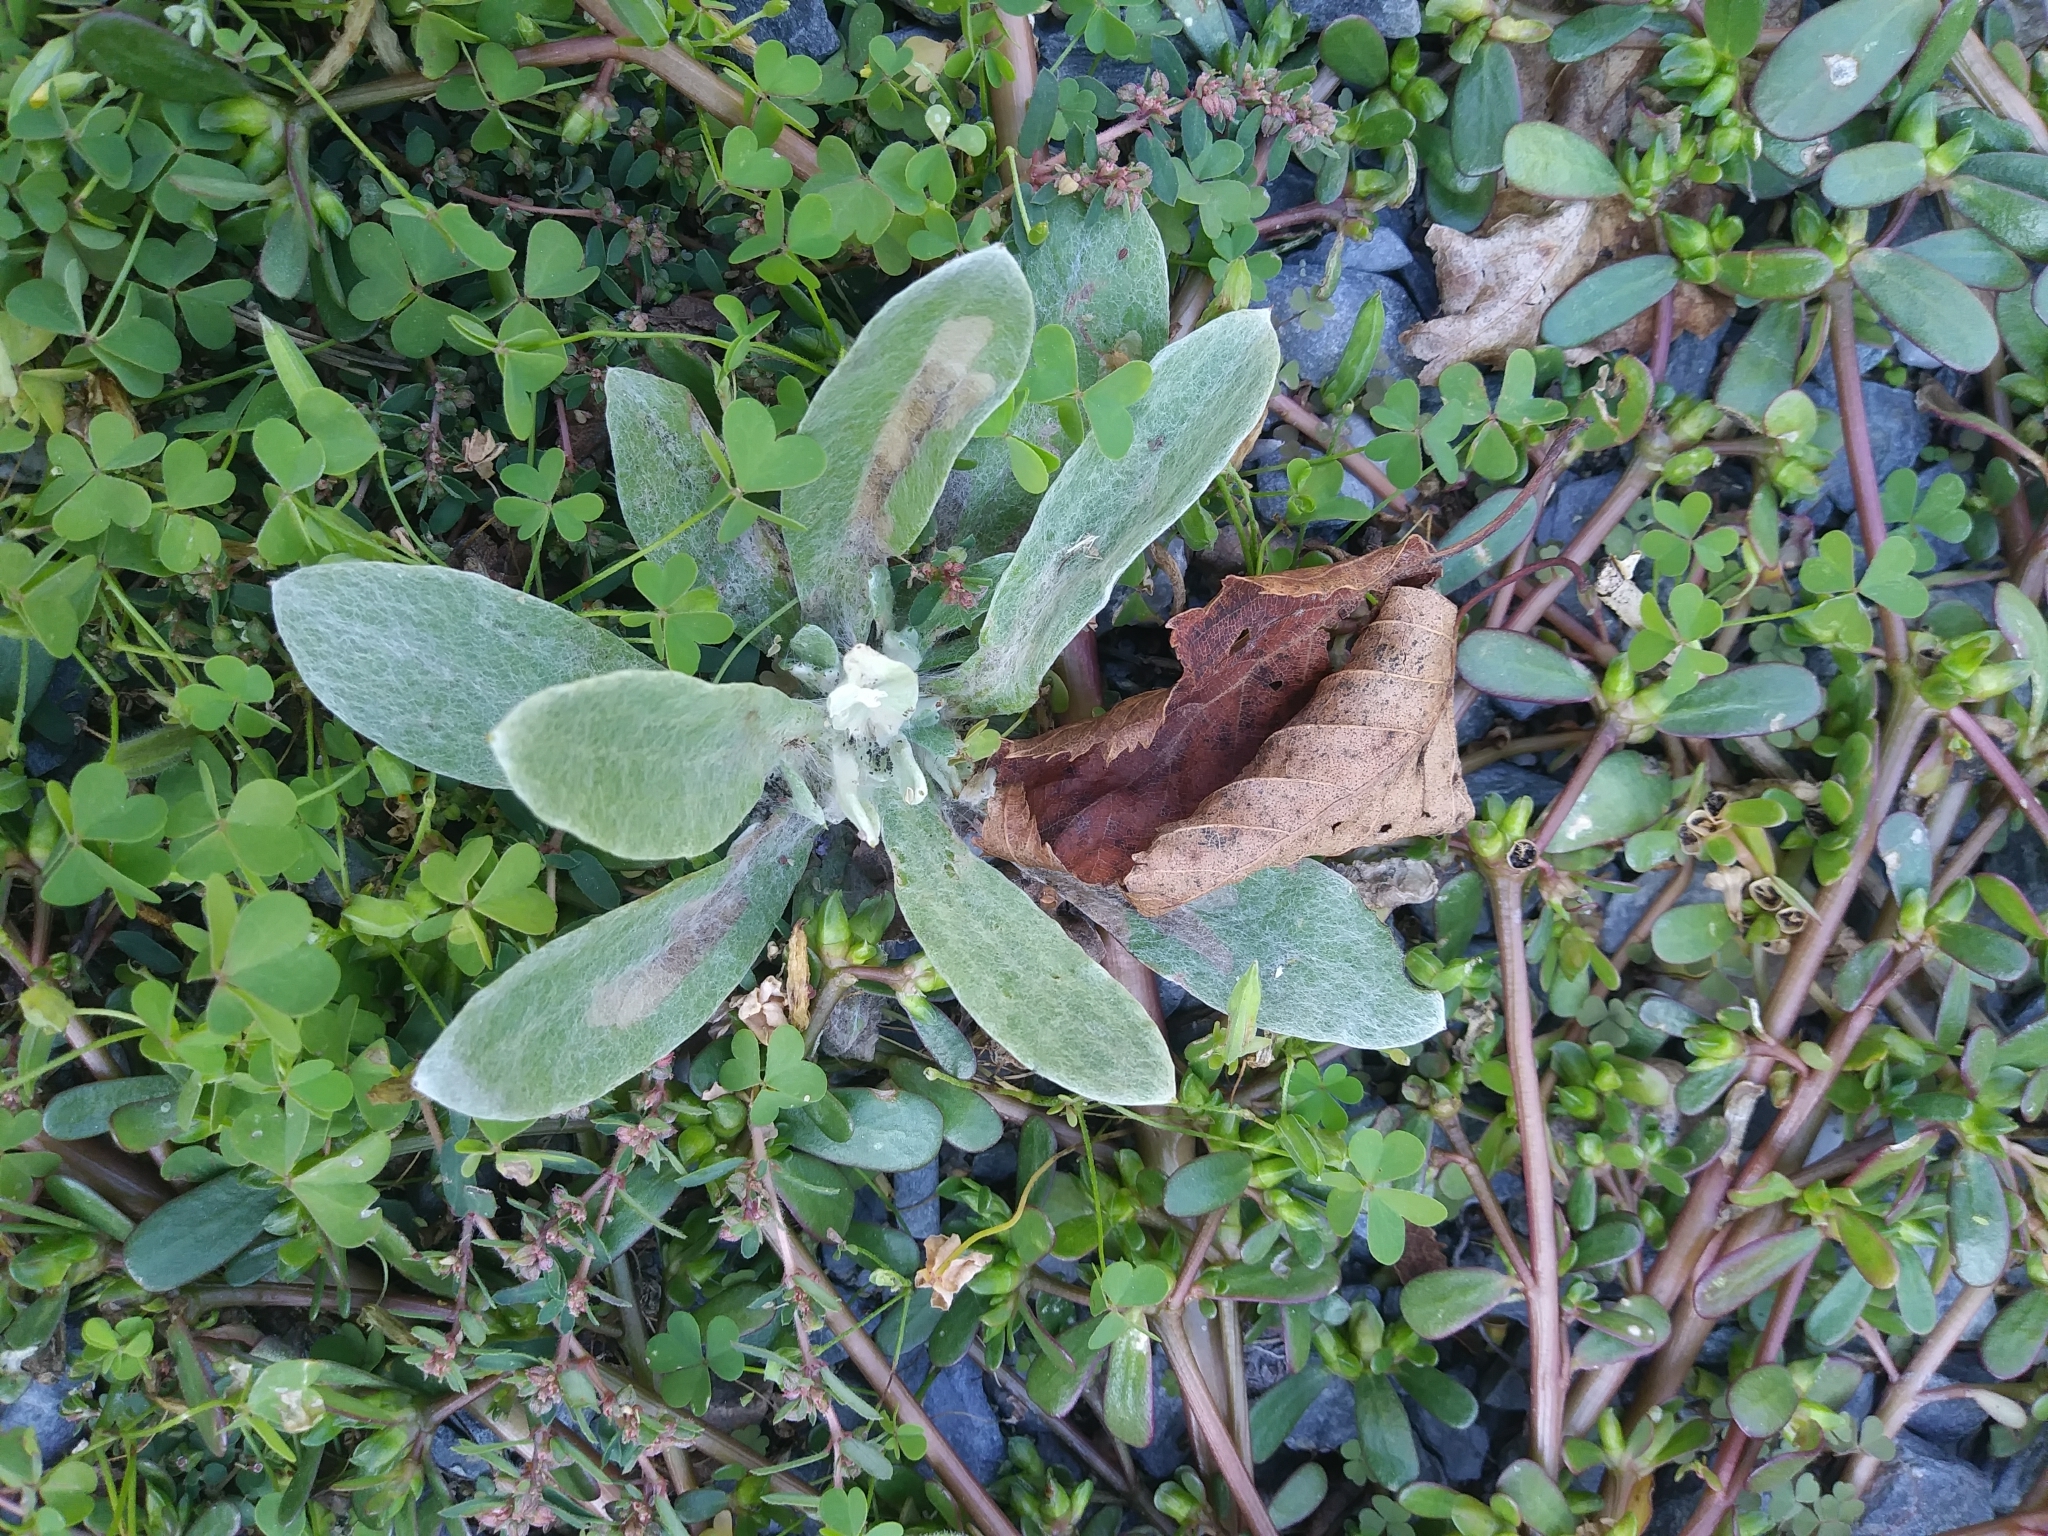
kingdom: Plantae
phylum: Tracheophyta
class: Magnoliopsida
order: Caryophyllales
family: Caryophyllaceae
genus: Silene
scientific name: Silene coronaria
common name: Rose campion
